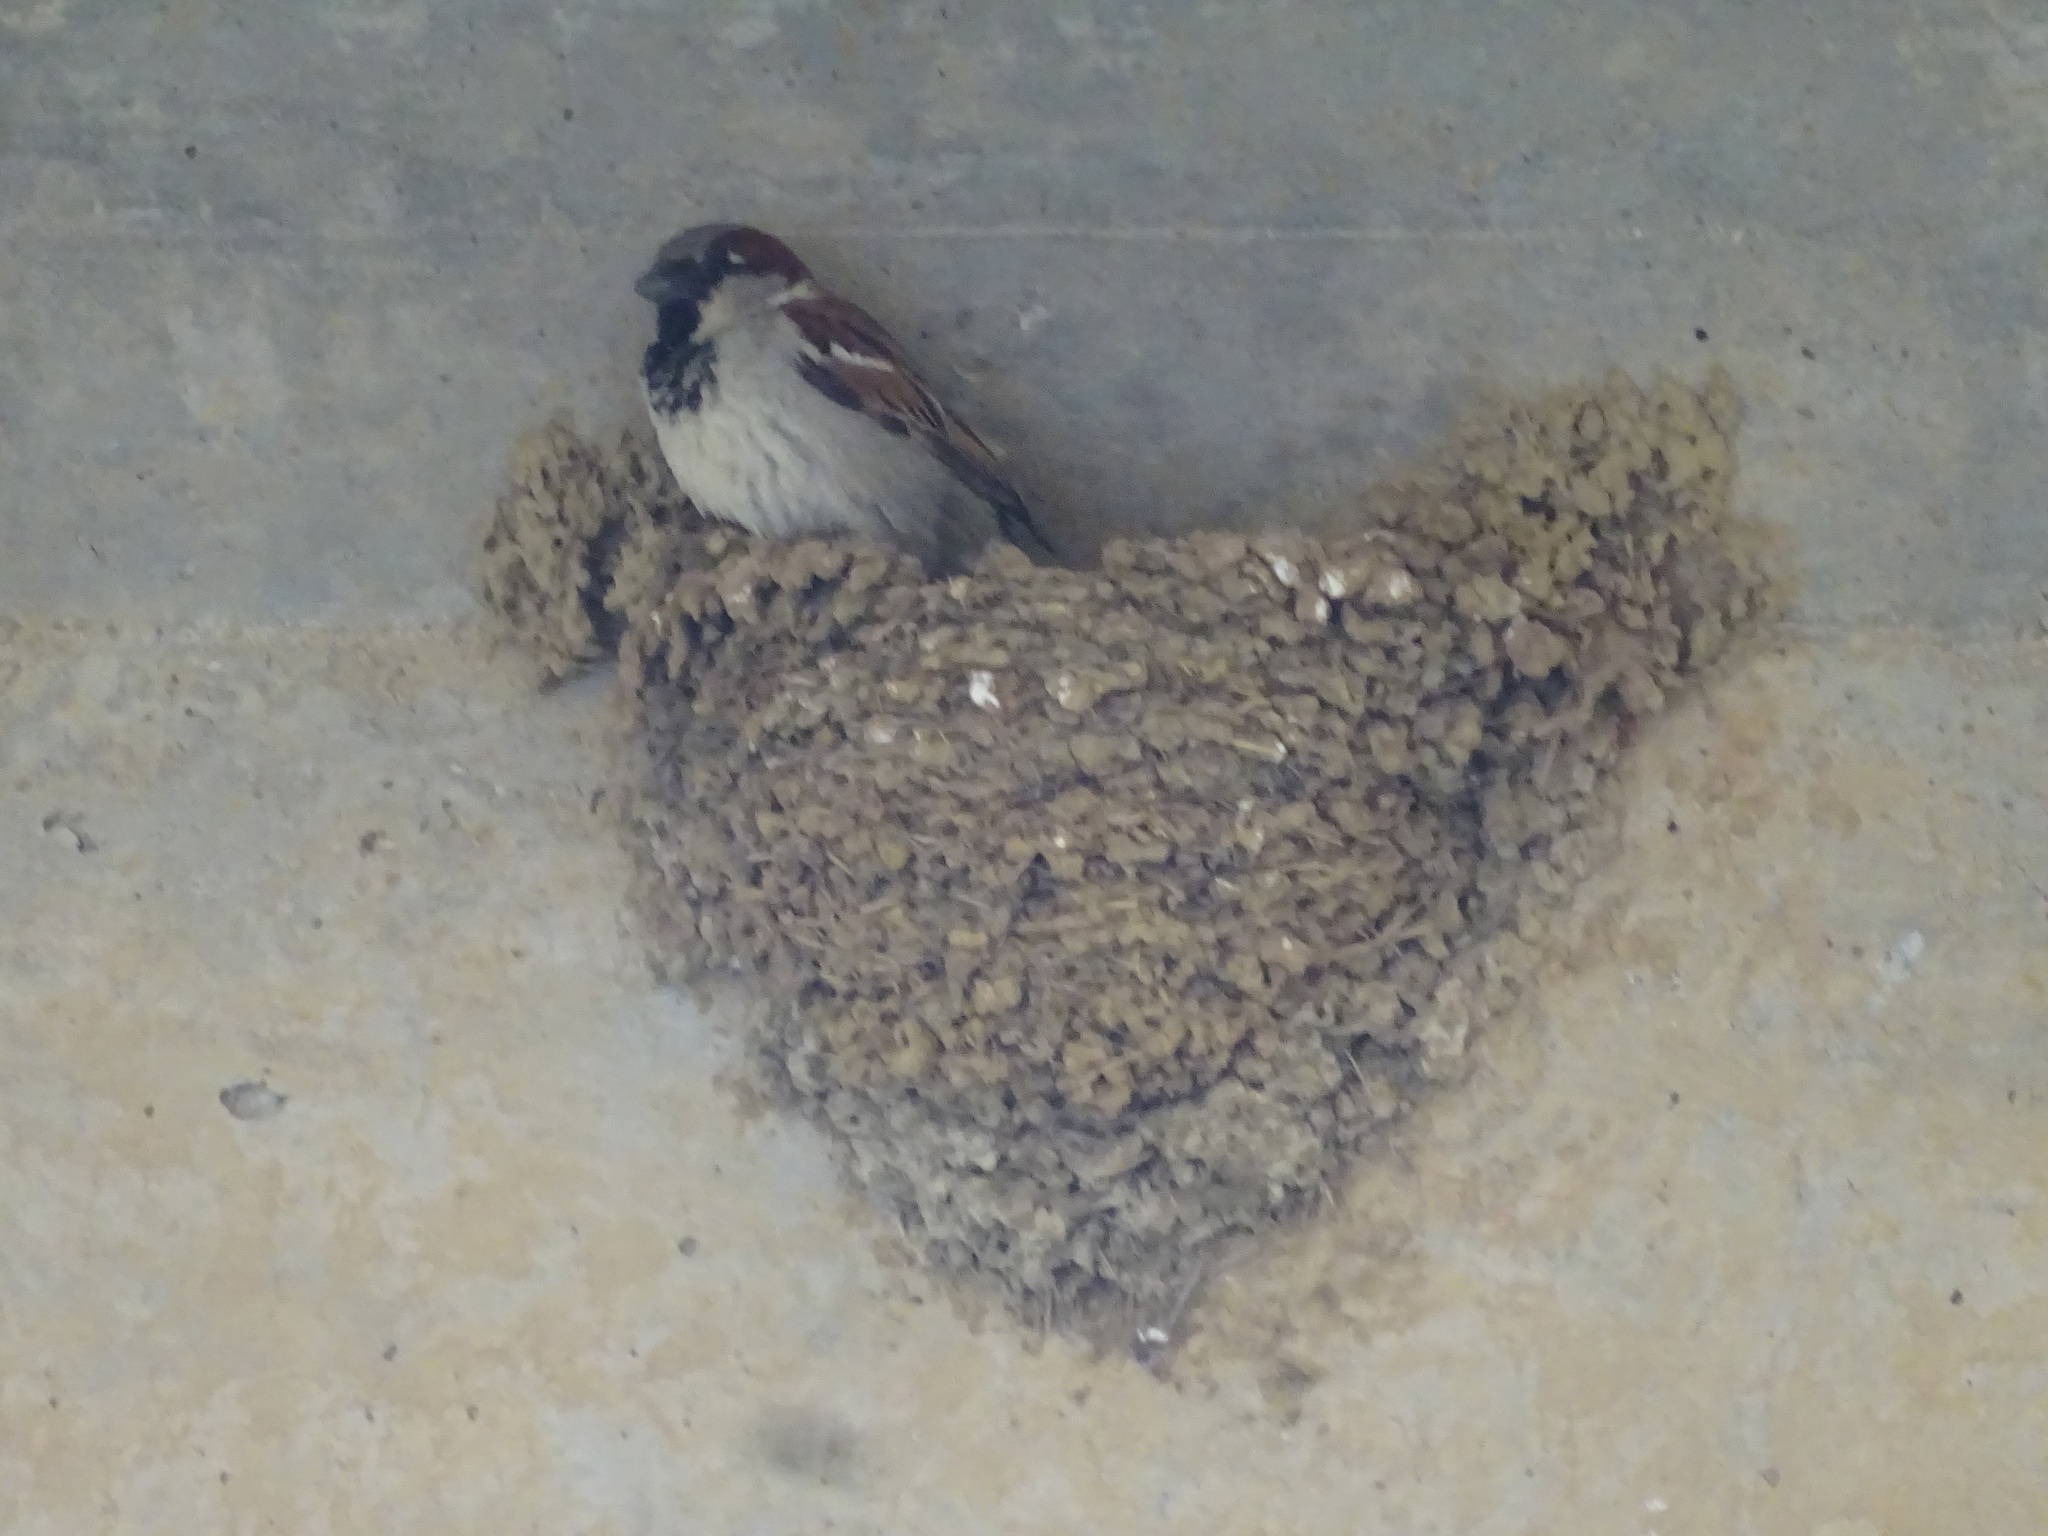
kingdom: Animalia
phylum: Chordata
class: Aves
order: Passeriformes
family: Passeridae
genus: Passer
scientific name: Passer domesticus
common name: House sparrow
